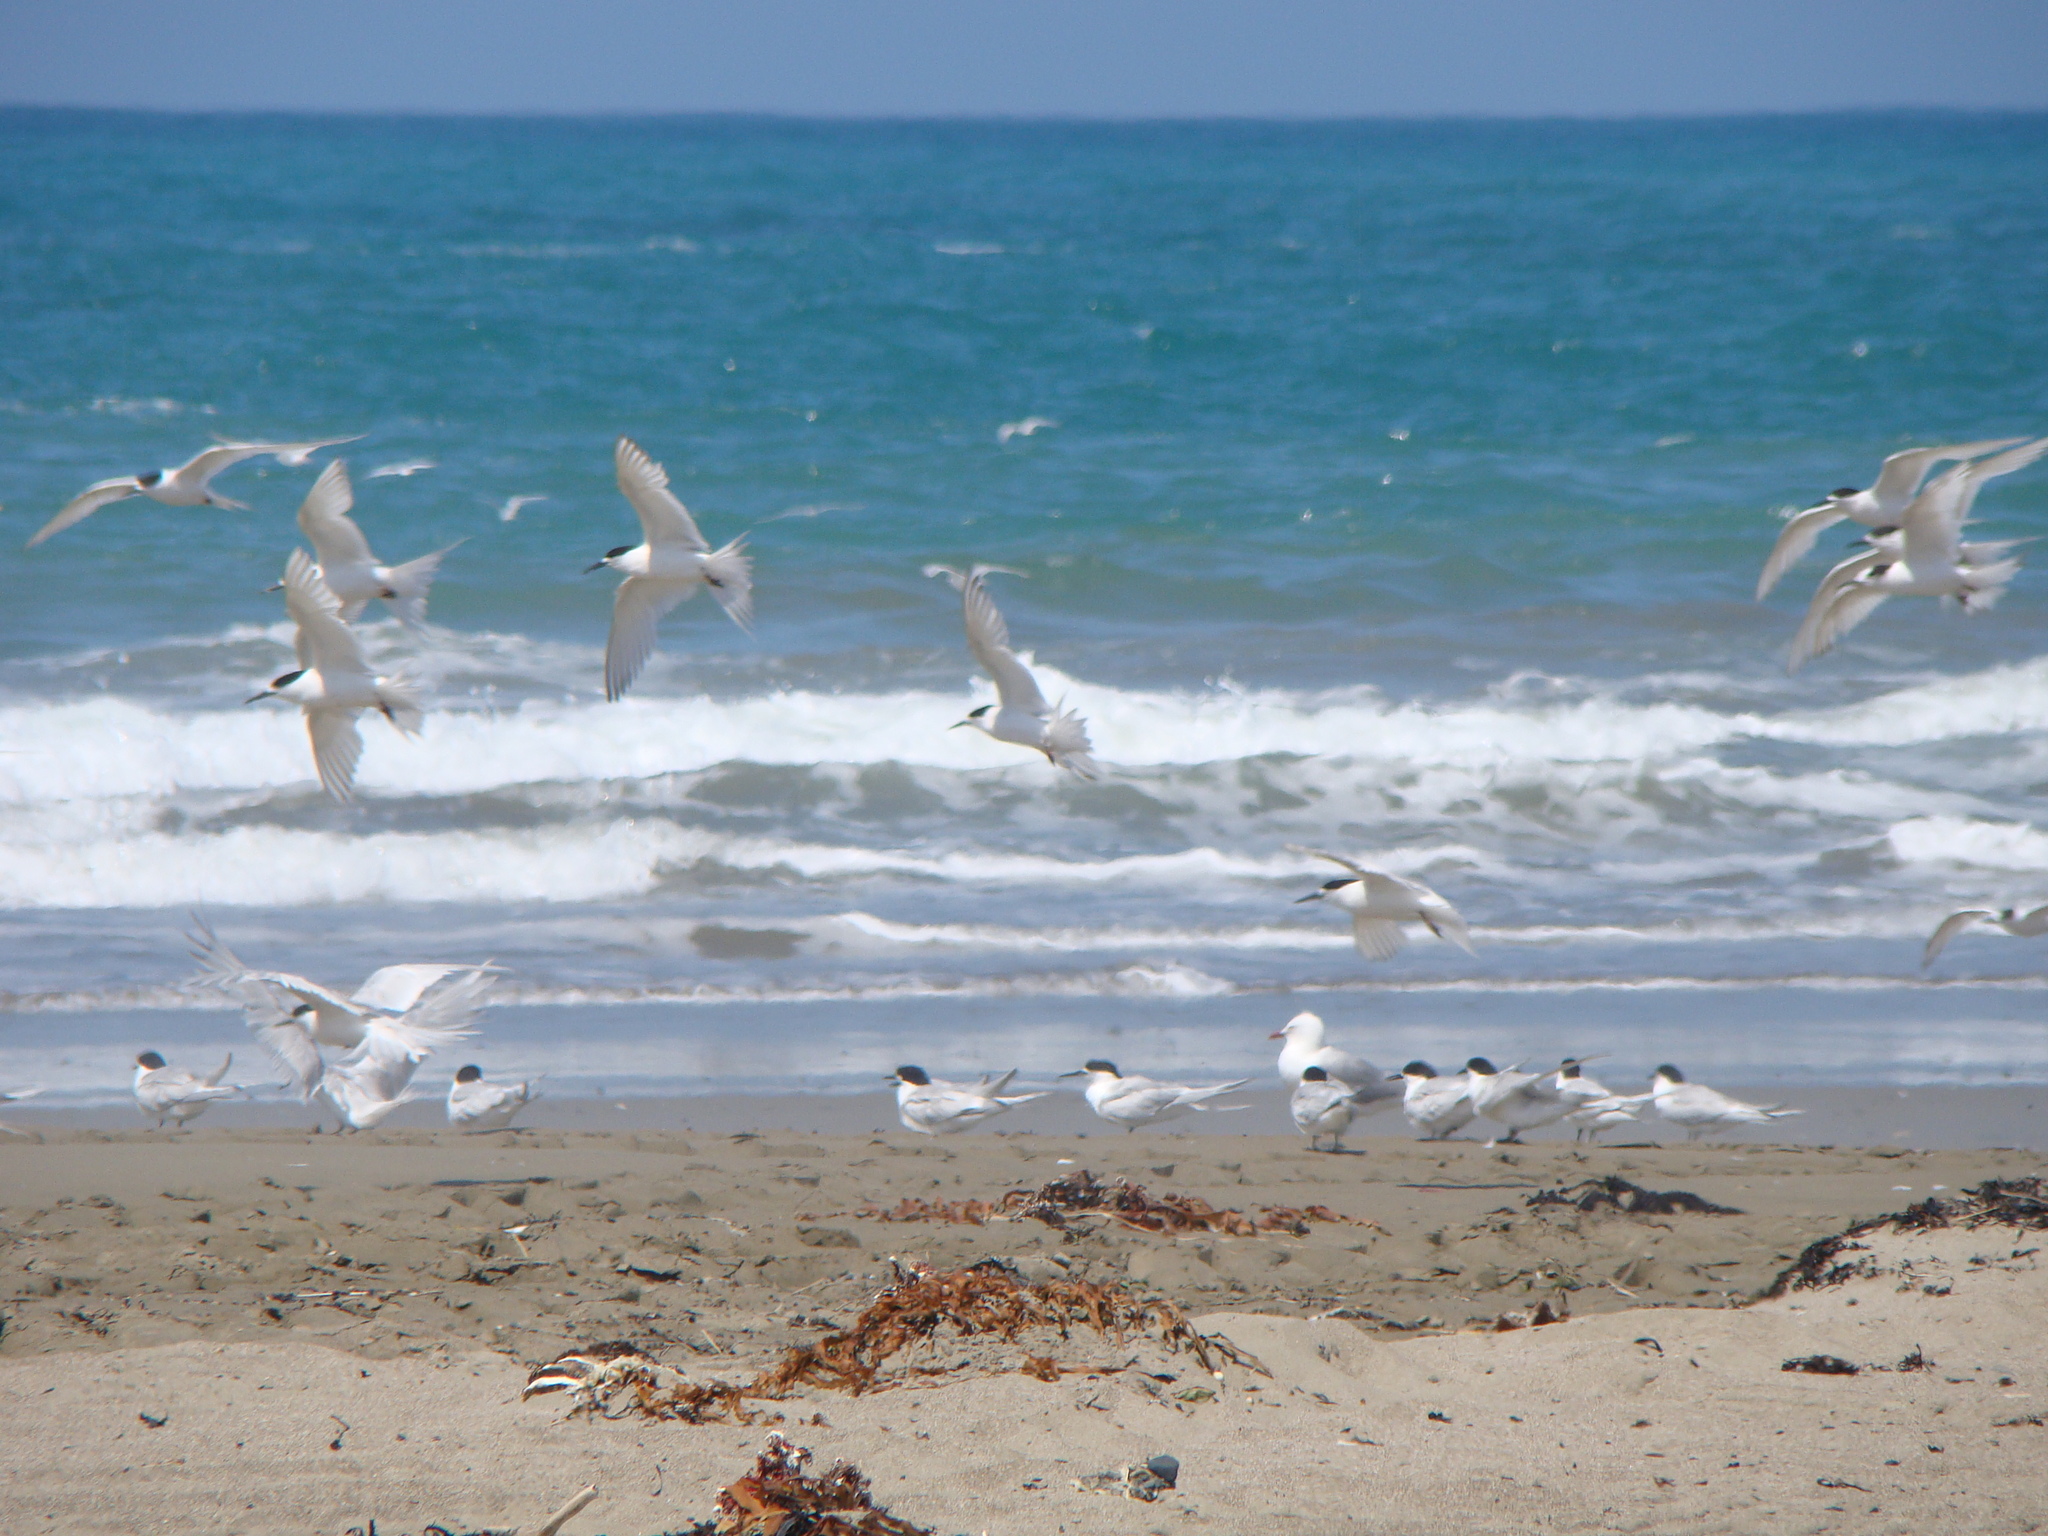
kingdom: Animalia
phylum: Chordata
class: Aves
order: Charadriiformes
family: Laridae
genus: Sterna
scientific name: Sterna striata
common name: White-fronted tern
